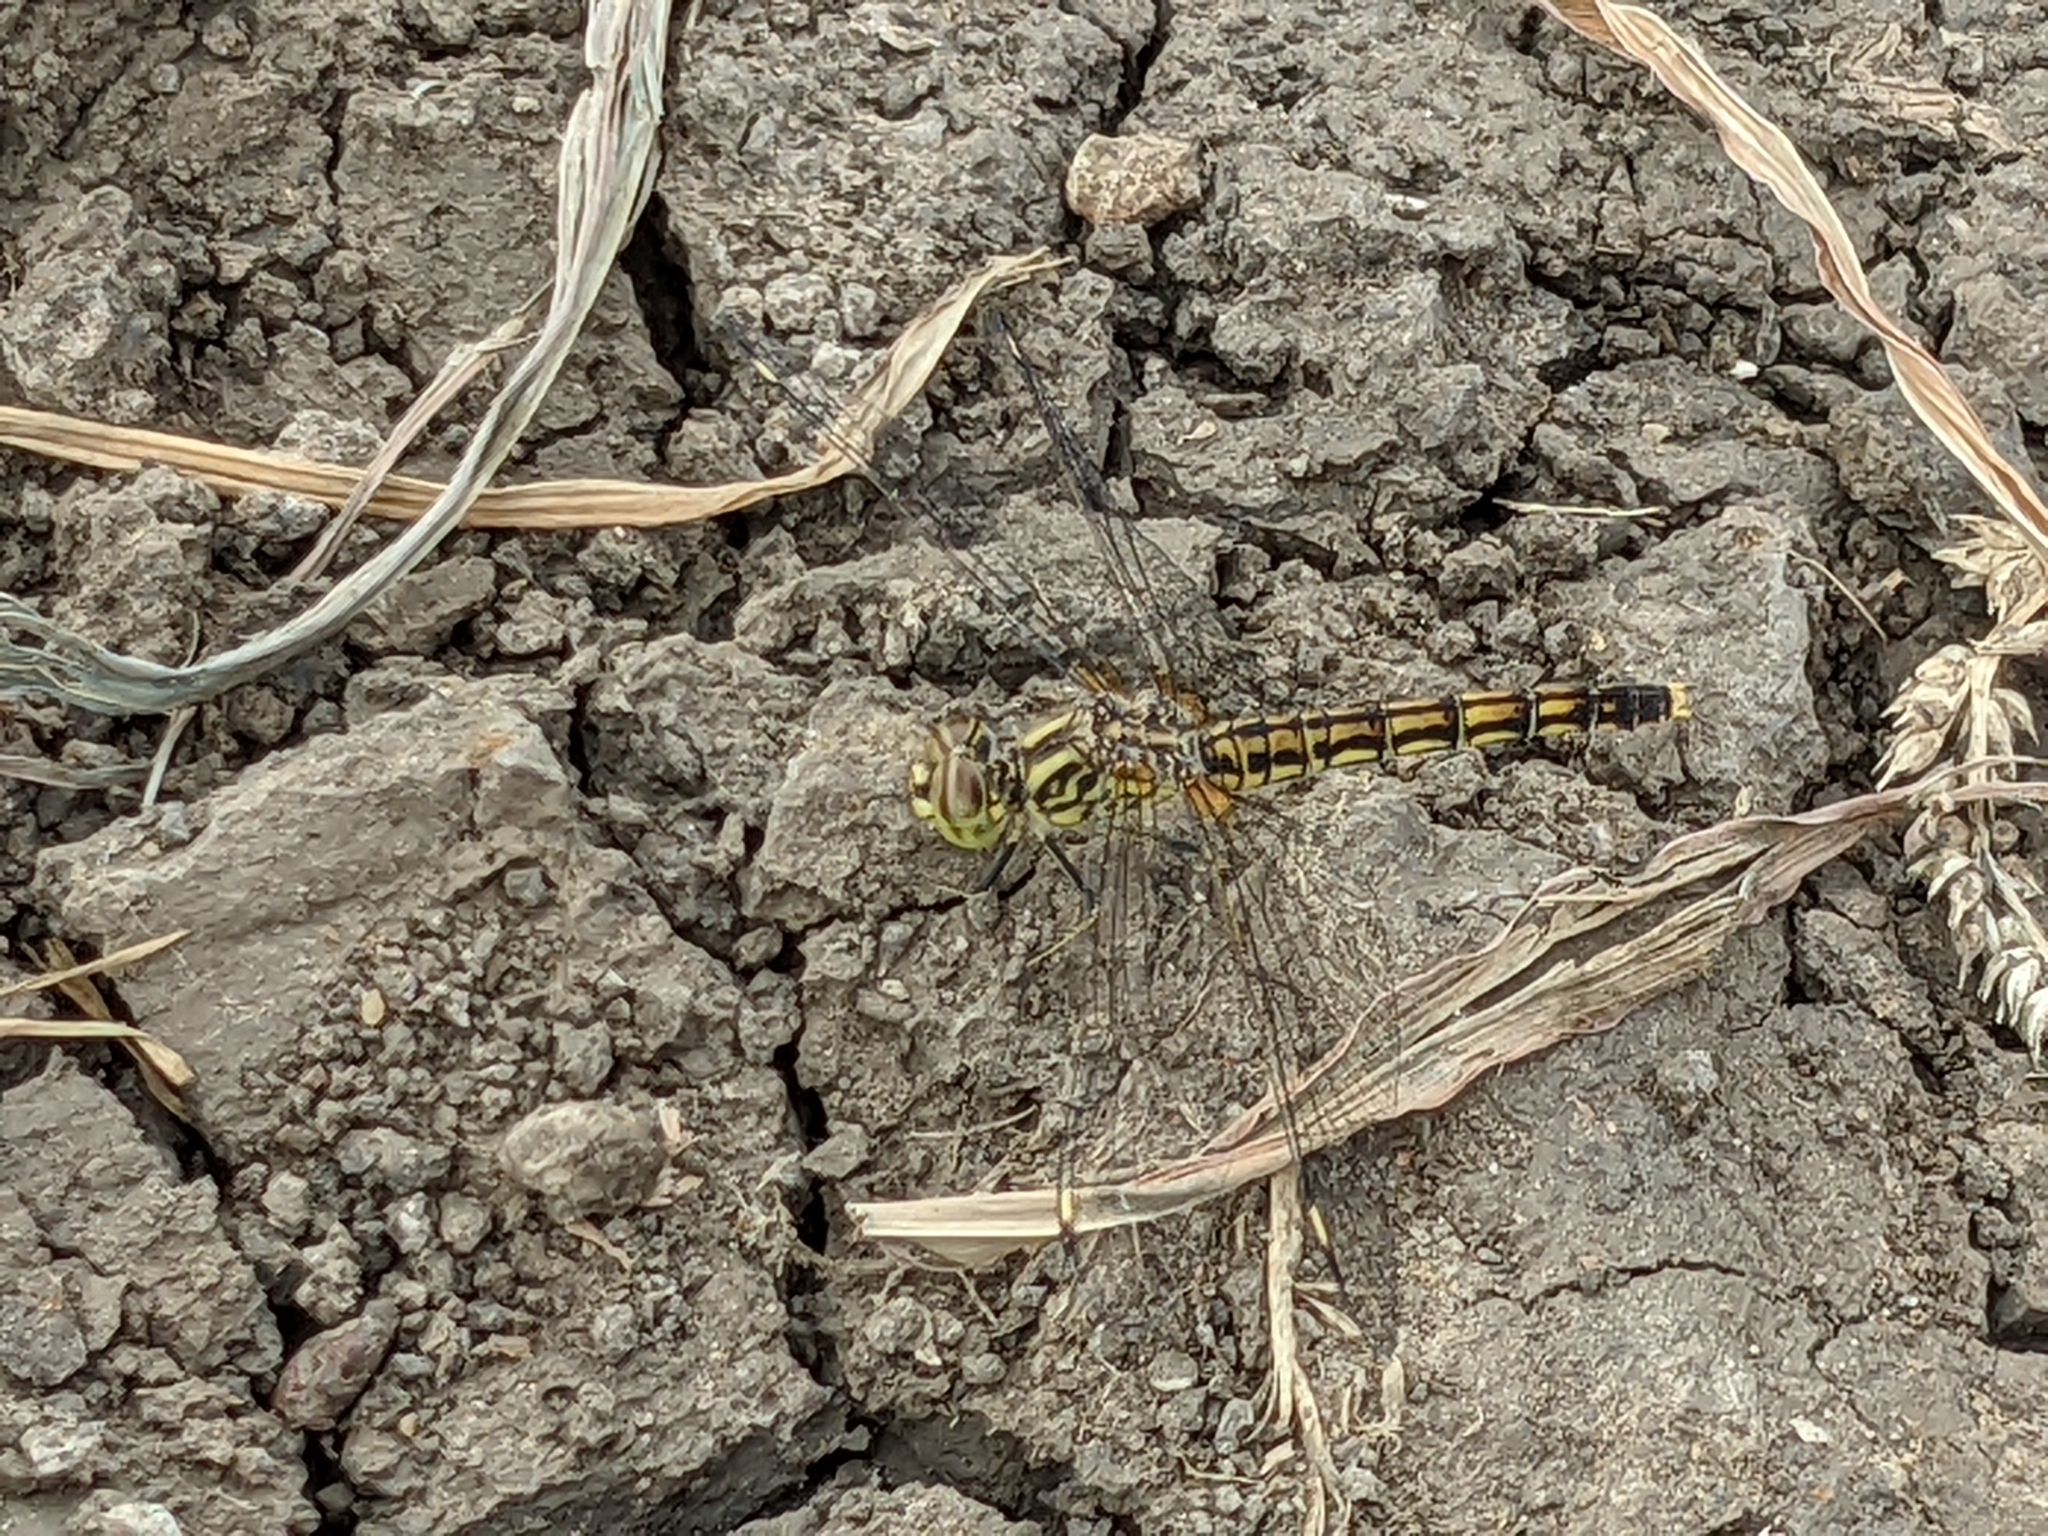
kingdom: Animalia
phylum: Arthropoda
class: Insecta
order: Odonata
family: Libellulidae
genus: Brachythemis
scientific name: Brachythemis leucosticta
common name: Banded groundling
